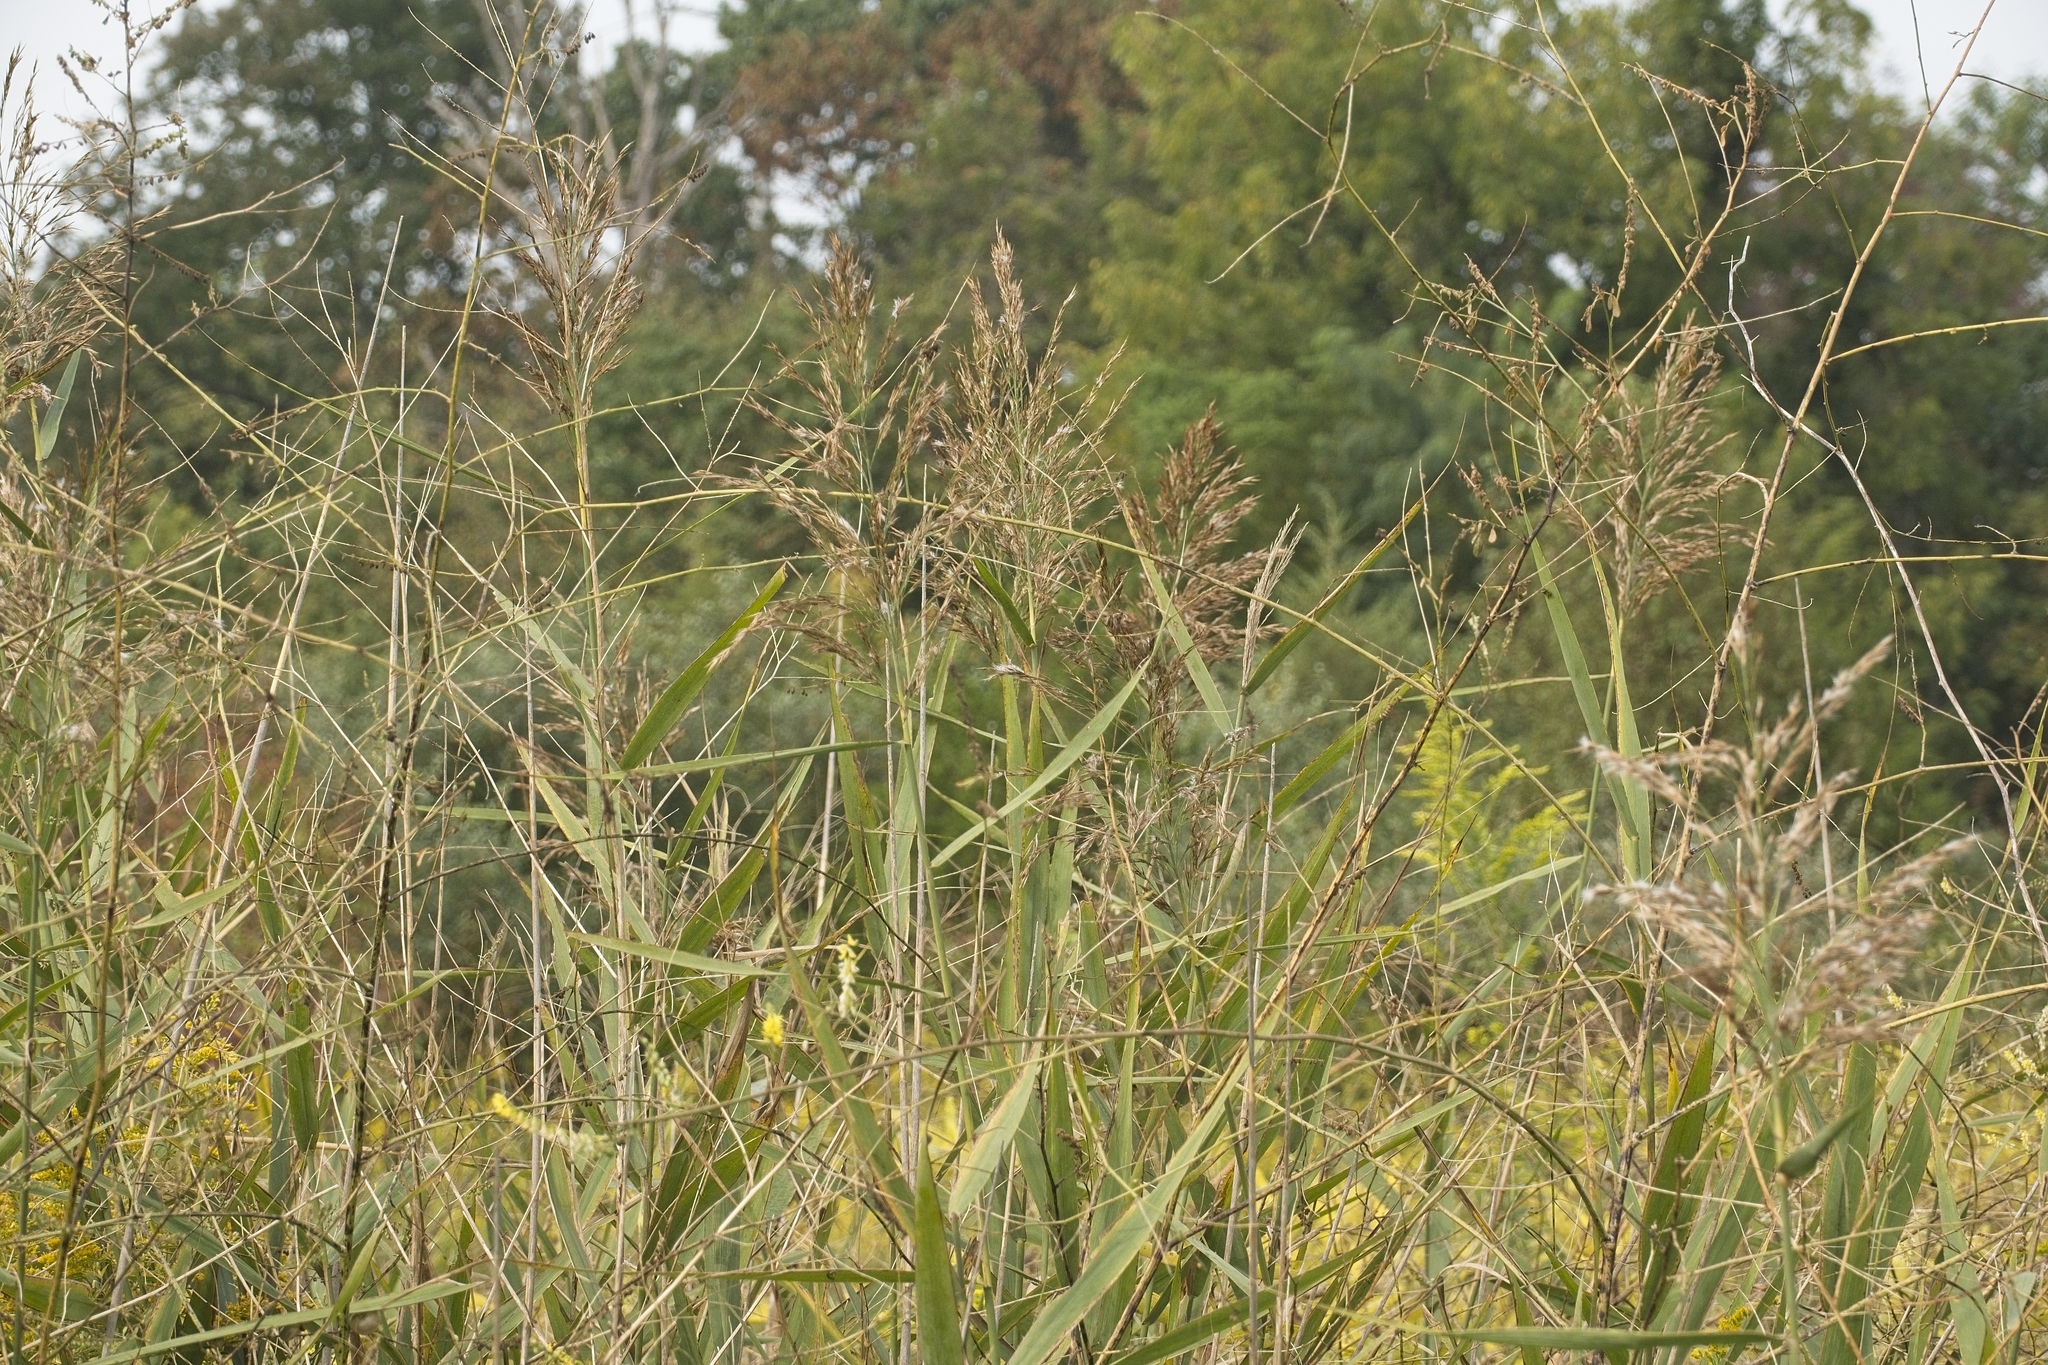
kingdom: Plantae
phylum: Tracheophyta
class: Liliopsida
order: Poales
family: Poaceae
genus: Phragmites
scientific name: Phragmites australis
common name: Common reed
